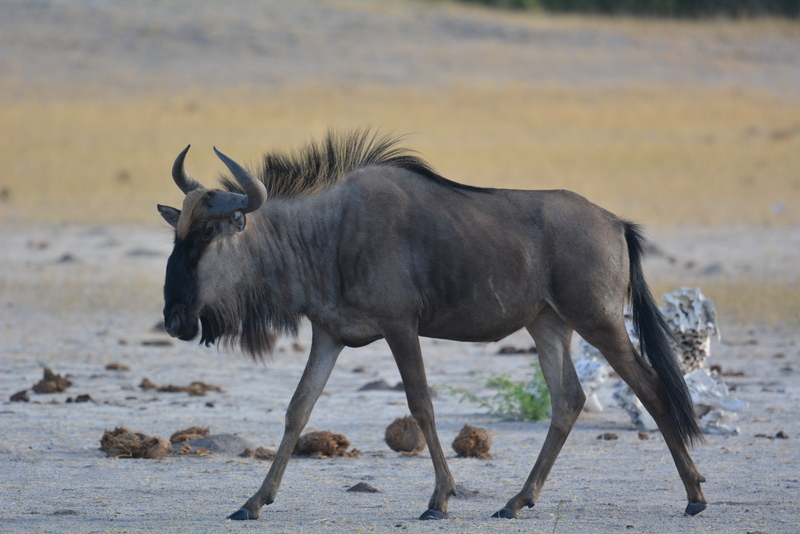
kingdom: Animalia
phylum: Chordata
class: Mammalia
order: Artiodactyla
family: Bovidae
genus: Connochaetes
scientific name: Connochaetes taurinus
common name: Blue wildebeest
